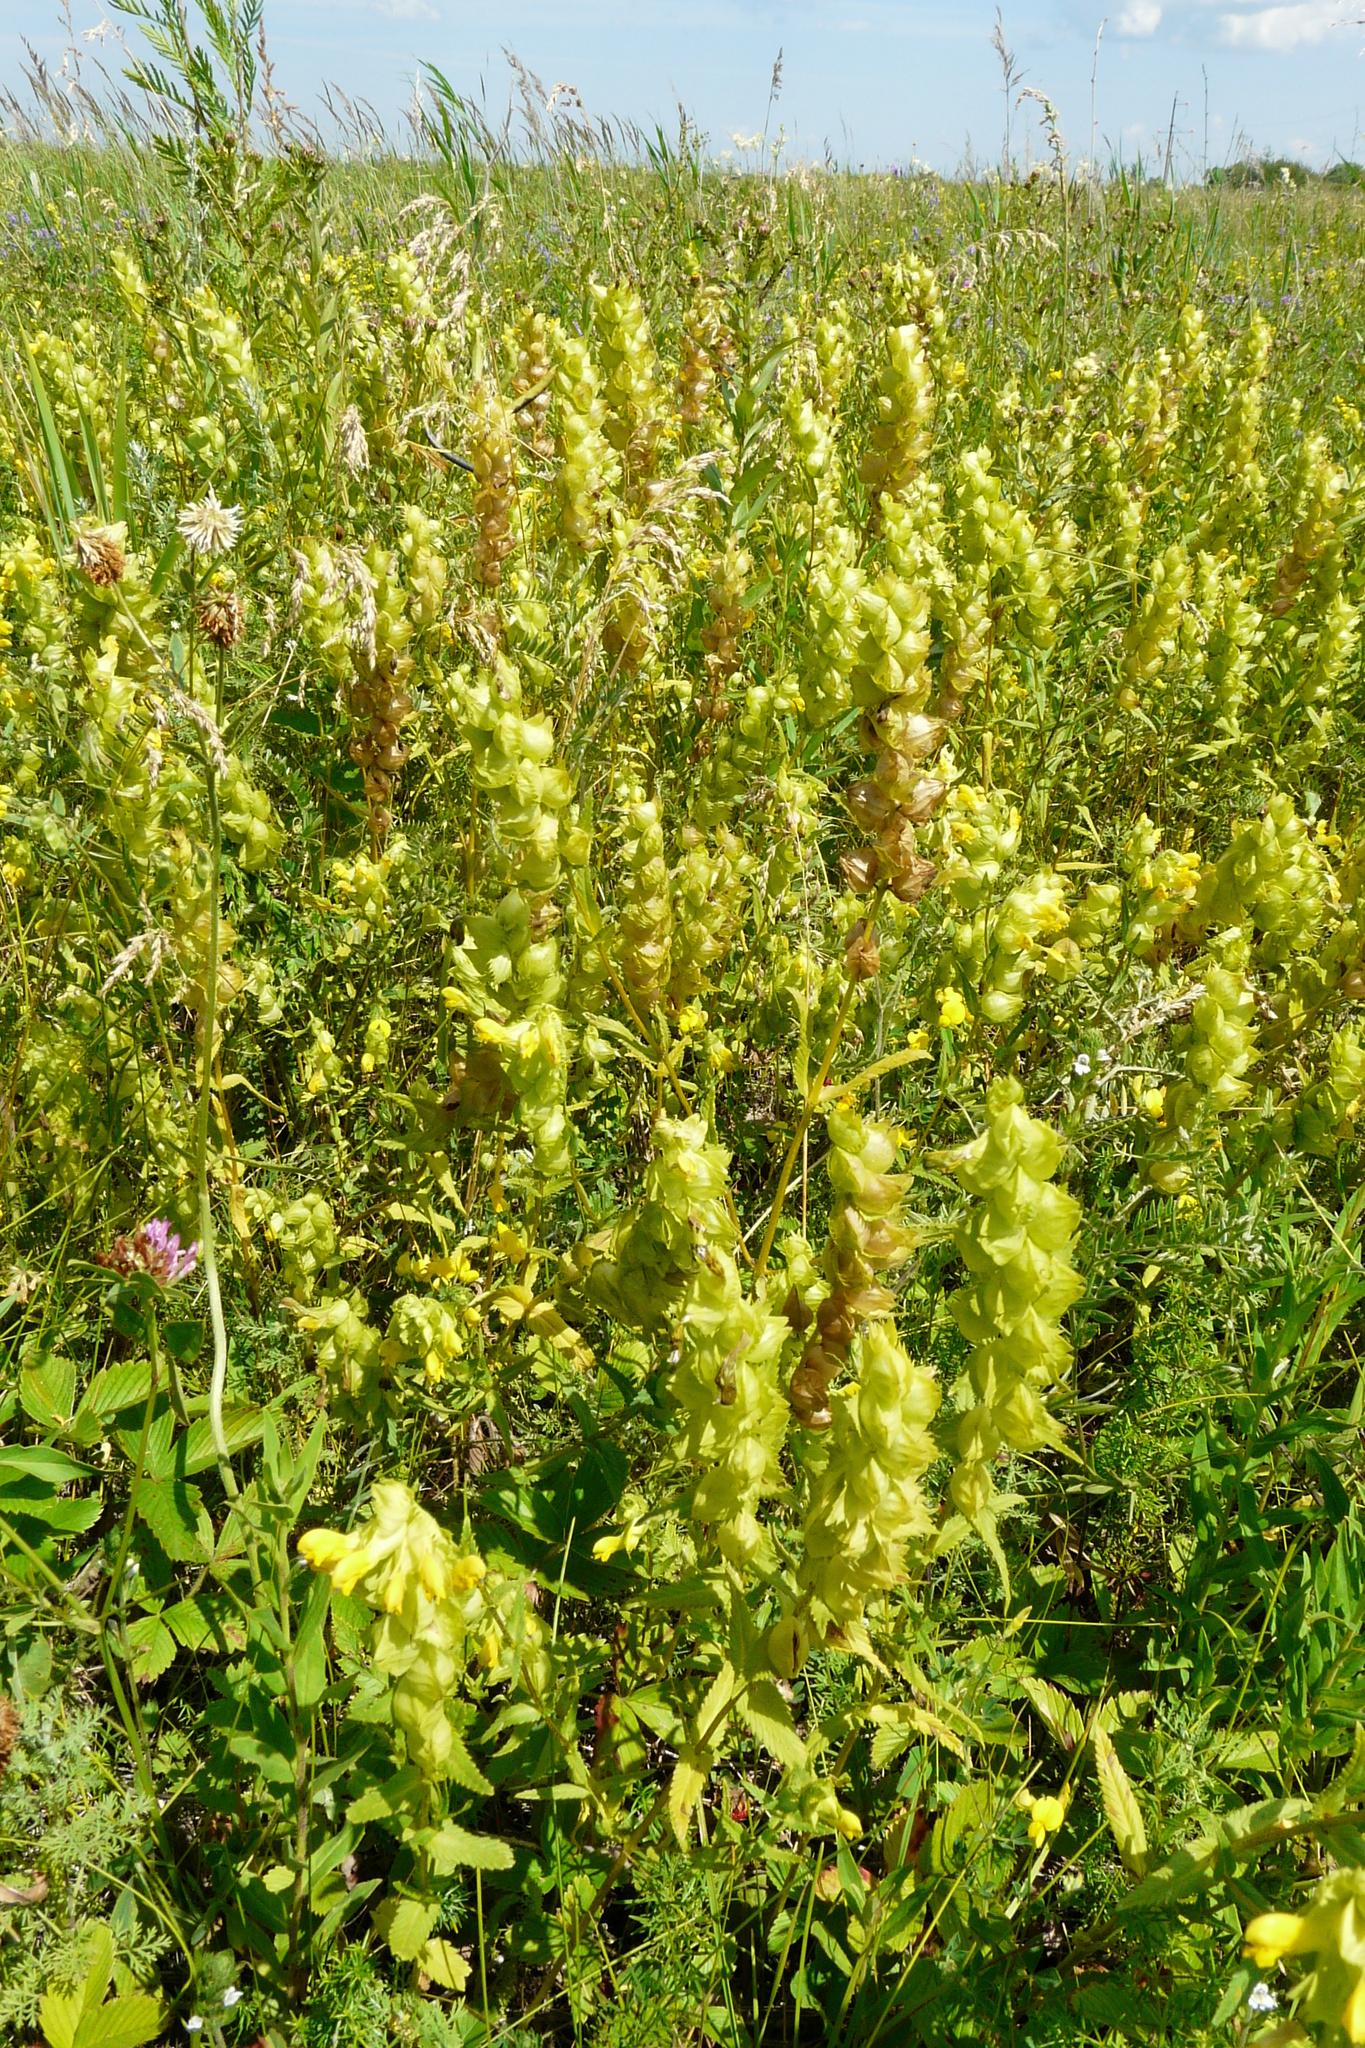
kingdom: Plantae
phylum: Tracheophyta
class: Magnoliopsida
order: Lamiales
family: Orobanchaceae
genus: Rhinanthus
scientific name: Rhinanthus serotinus
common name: Late-flowering yellow rattle
